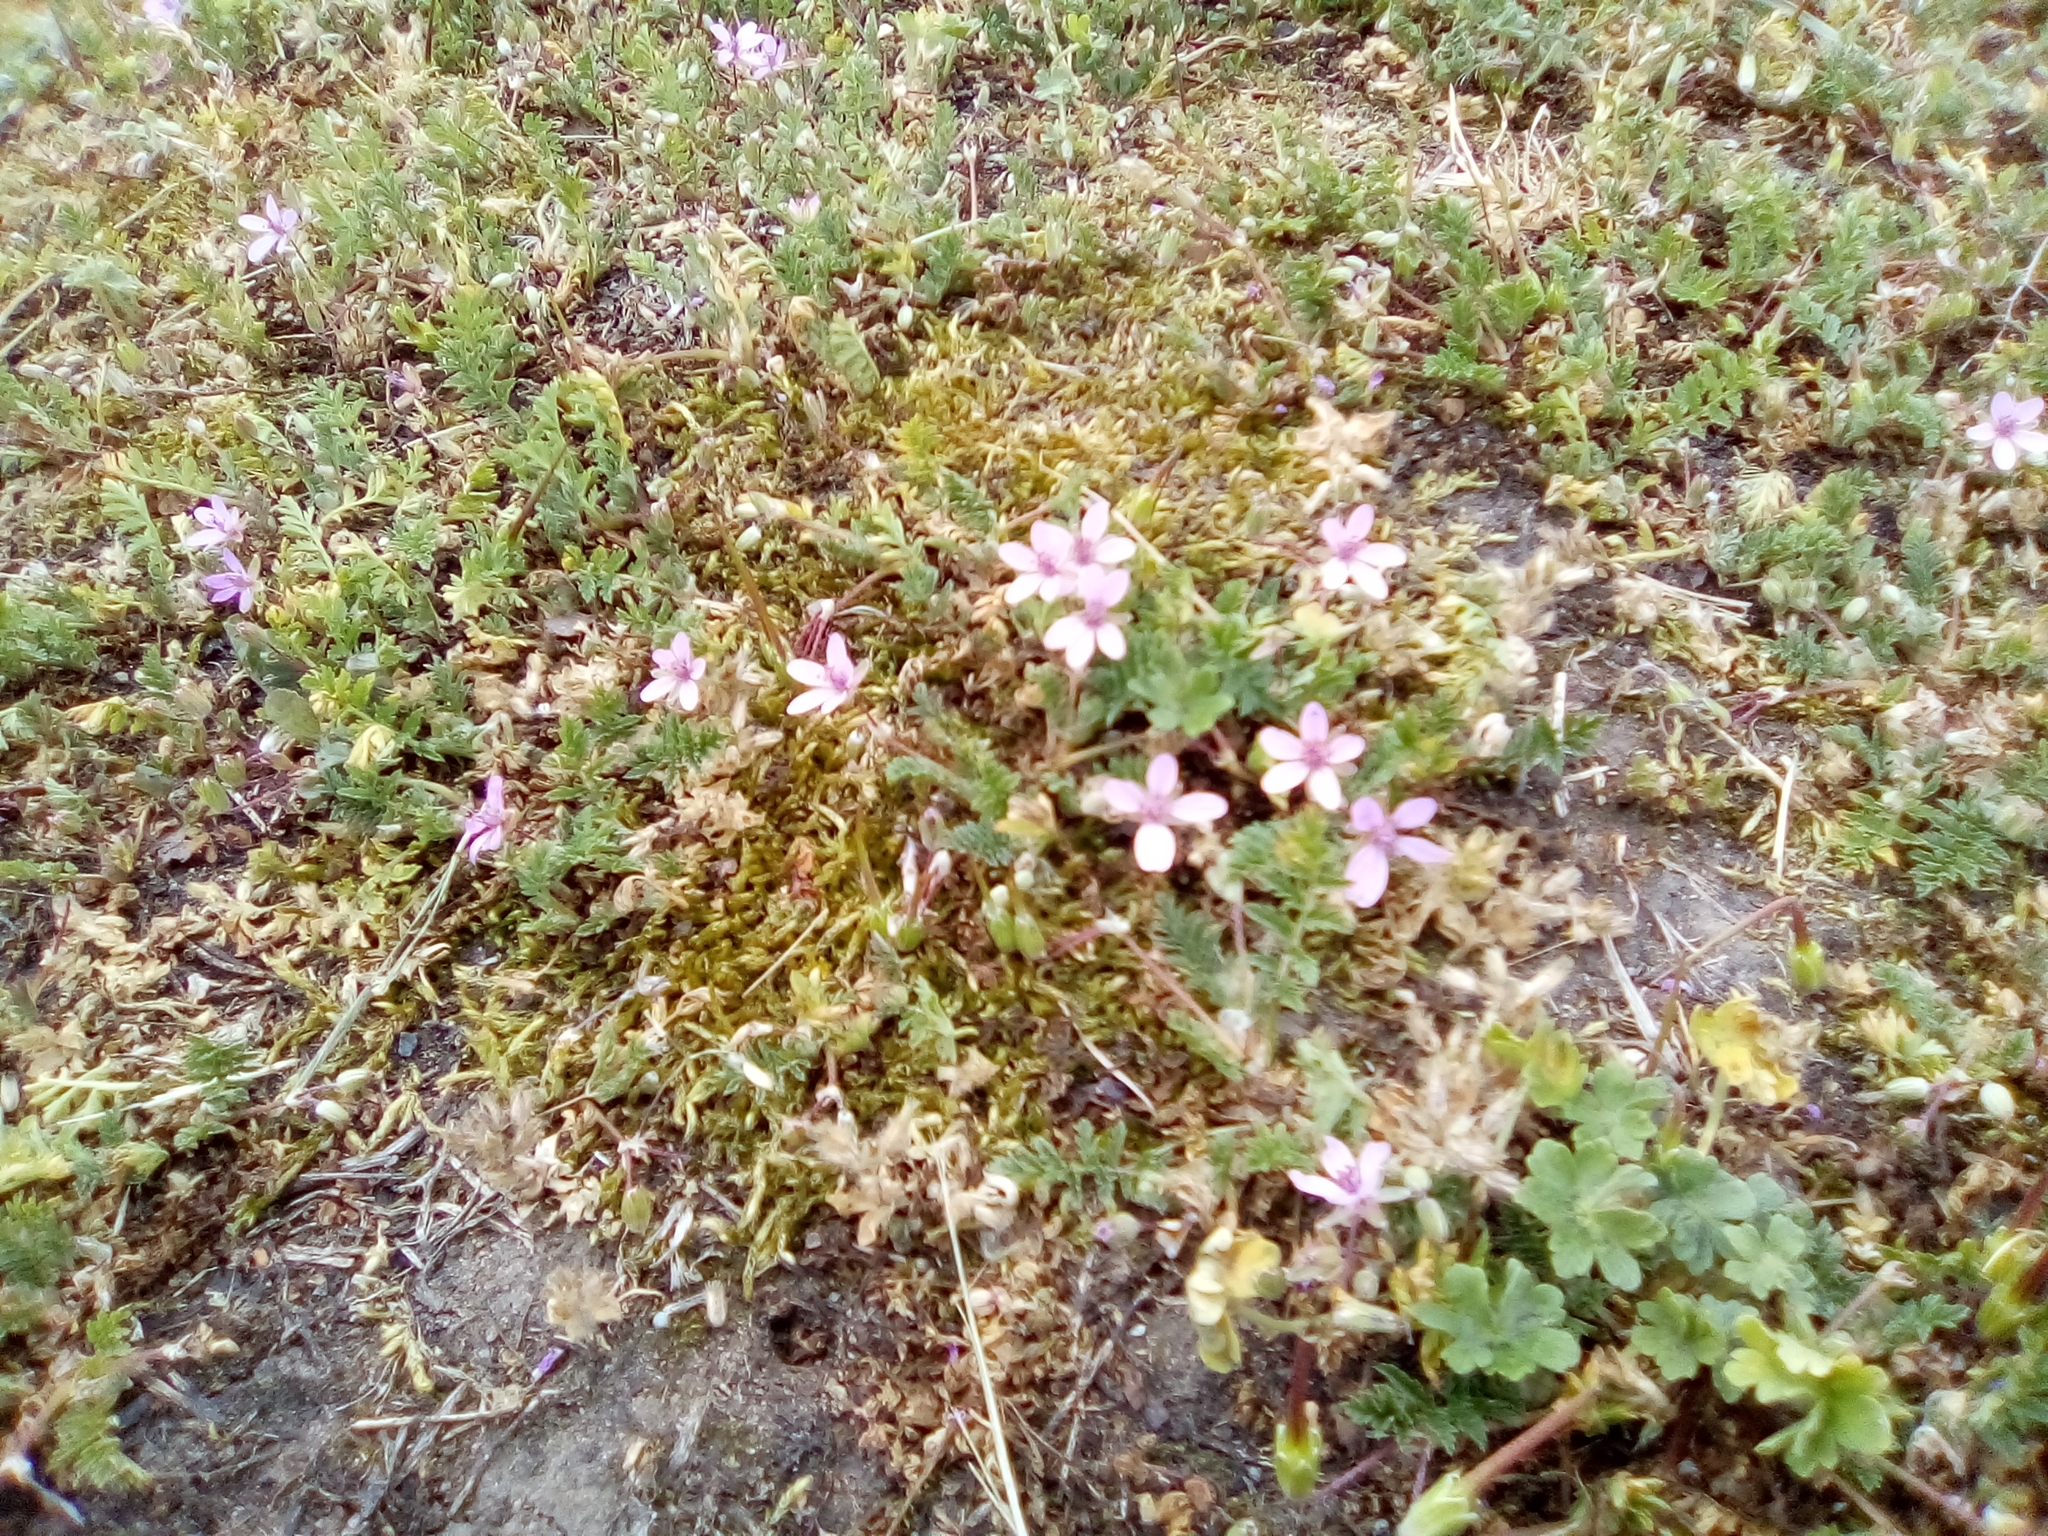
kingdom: Plantae
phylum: Tracheophyta
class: Magnoliopsida
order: Geraniales
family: Geraniaceae
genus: Erodium
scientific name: Erodium cicutarium
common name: Common stork's-bill
